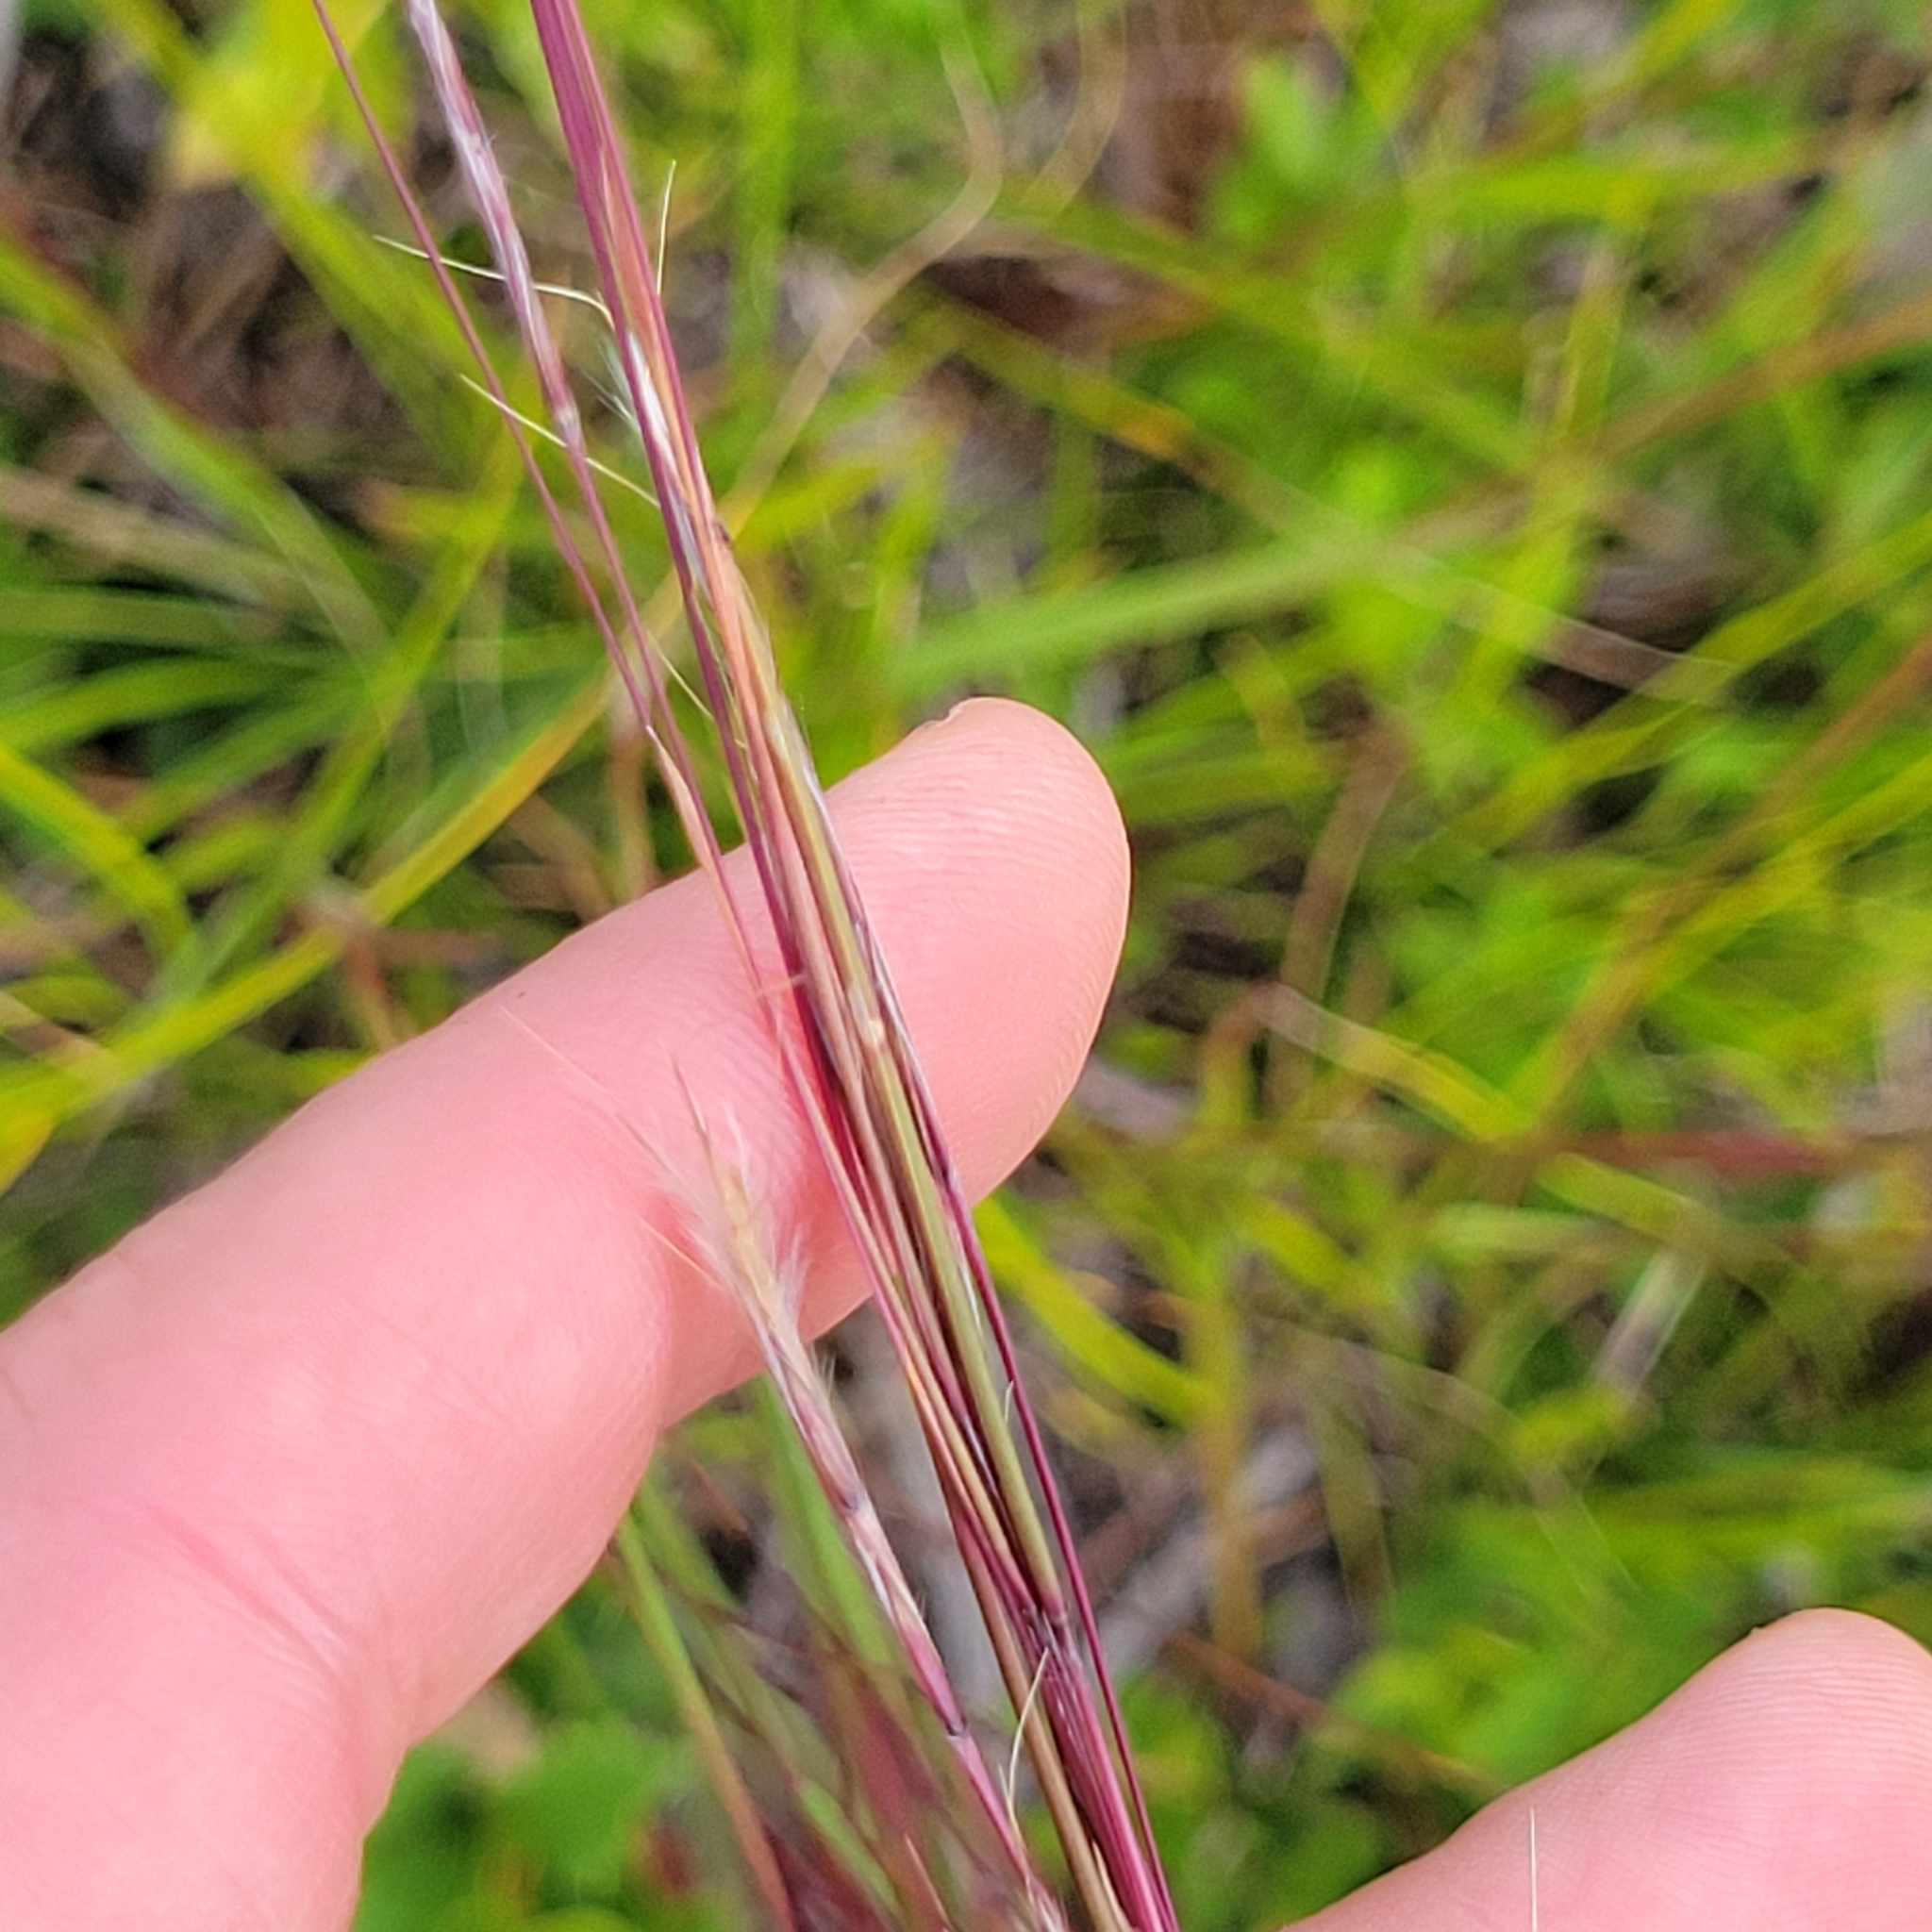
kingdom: Plantae
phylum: Tracheophyta
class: Liliopsida
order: Poales
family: Poaceae
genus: Schizachyrium
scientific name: Schizachyrium scoparium
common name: Little bluestem
